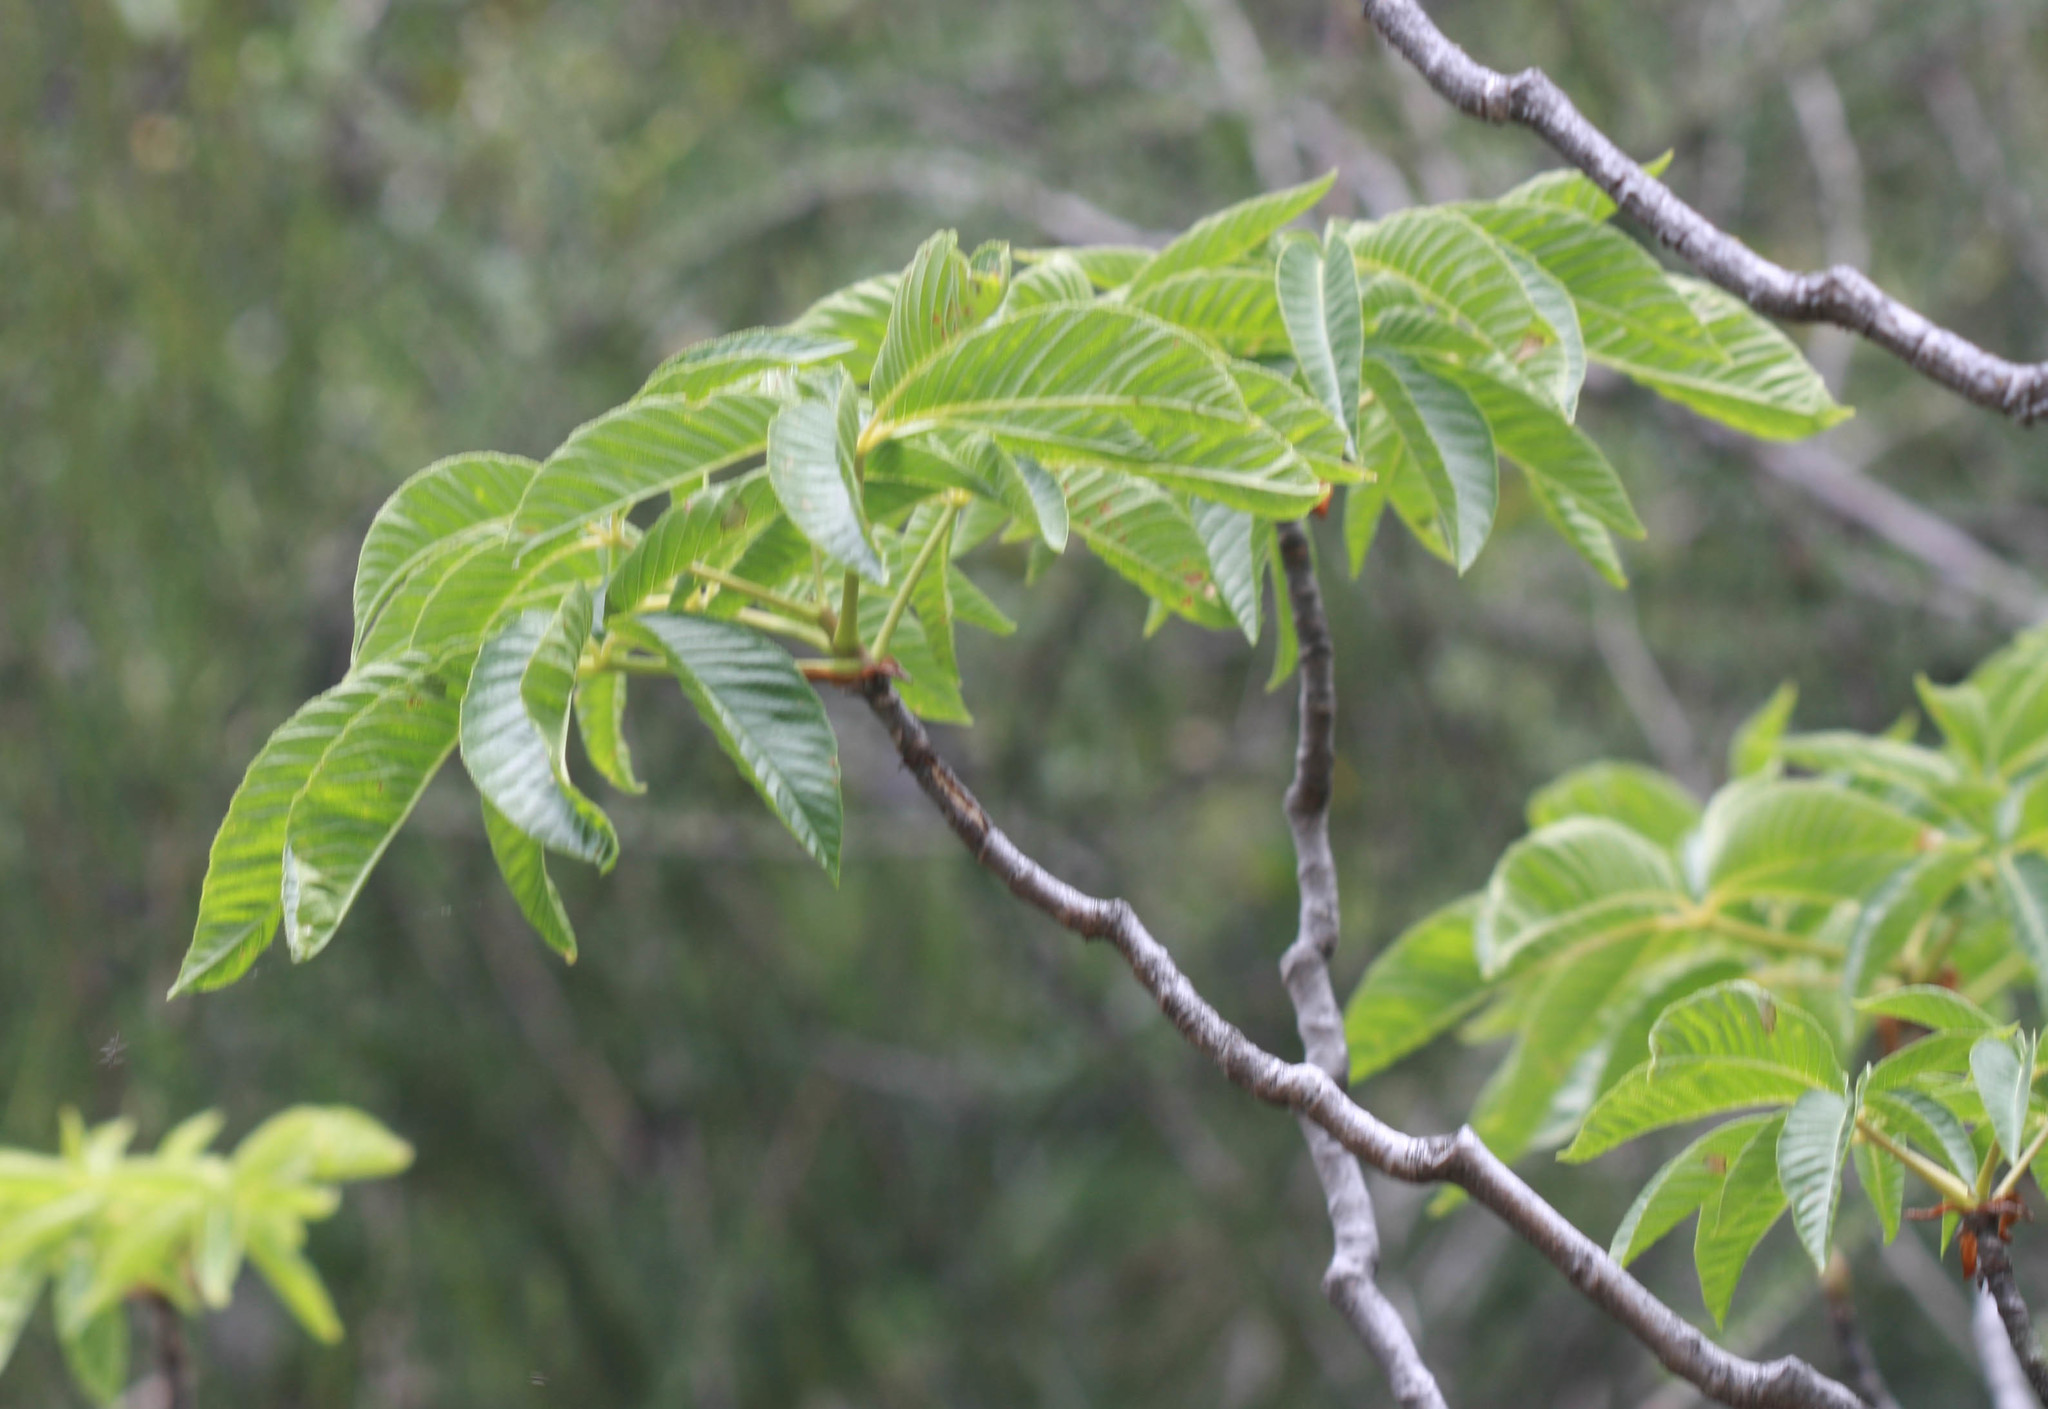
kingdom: Plantae
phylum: Tracheophyta
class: Magnoliopsida
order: Sapindales
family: Sapindaceae
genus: Aesculus
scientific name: Aesculus californica
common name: California buckeye
